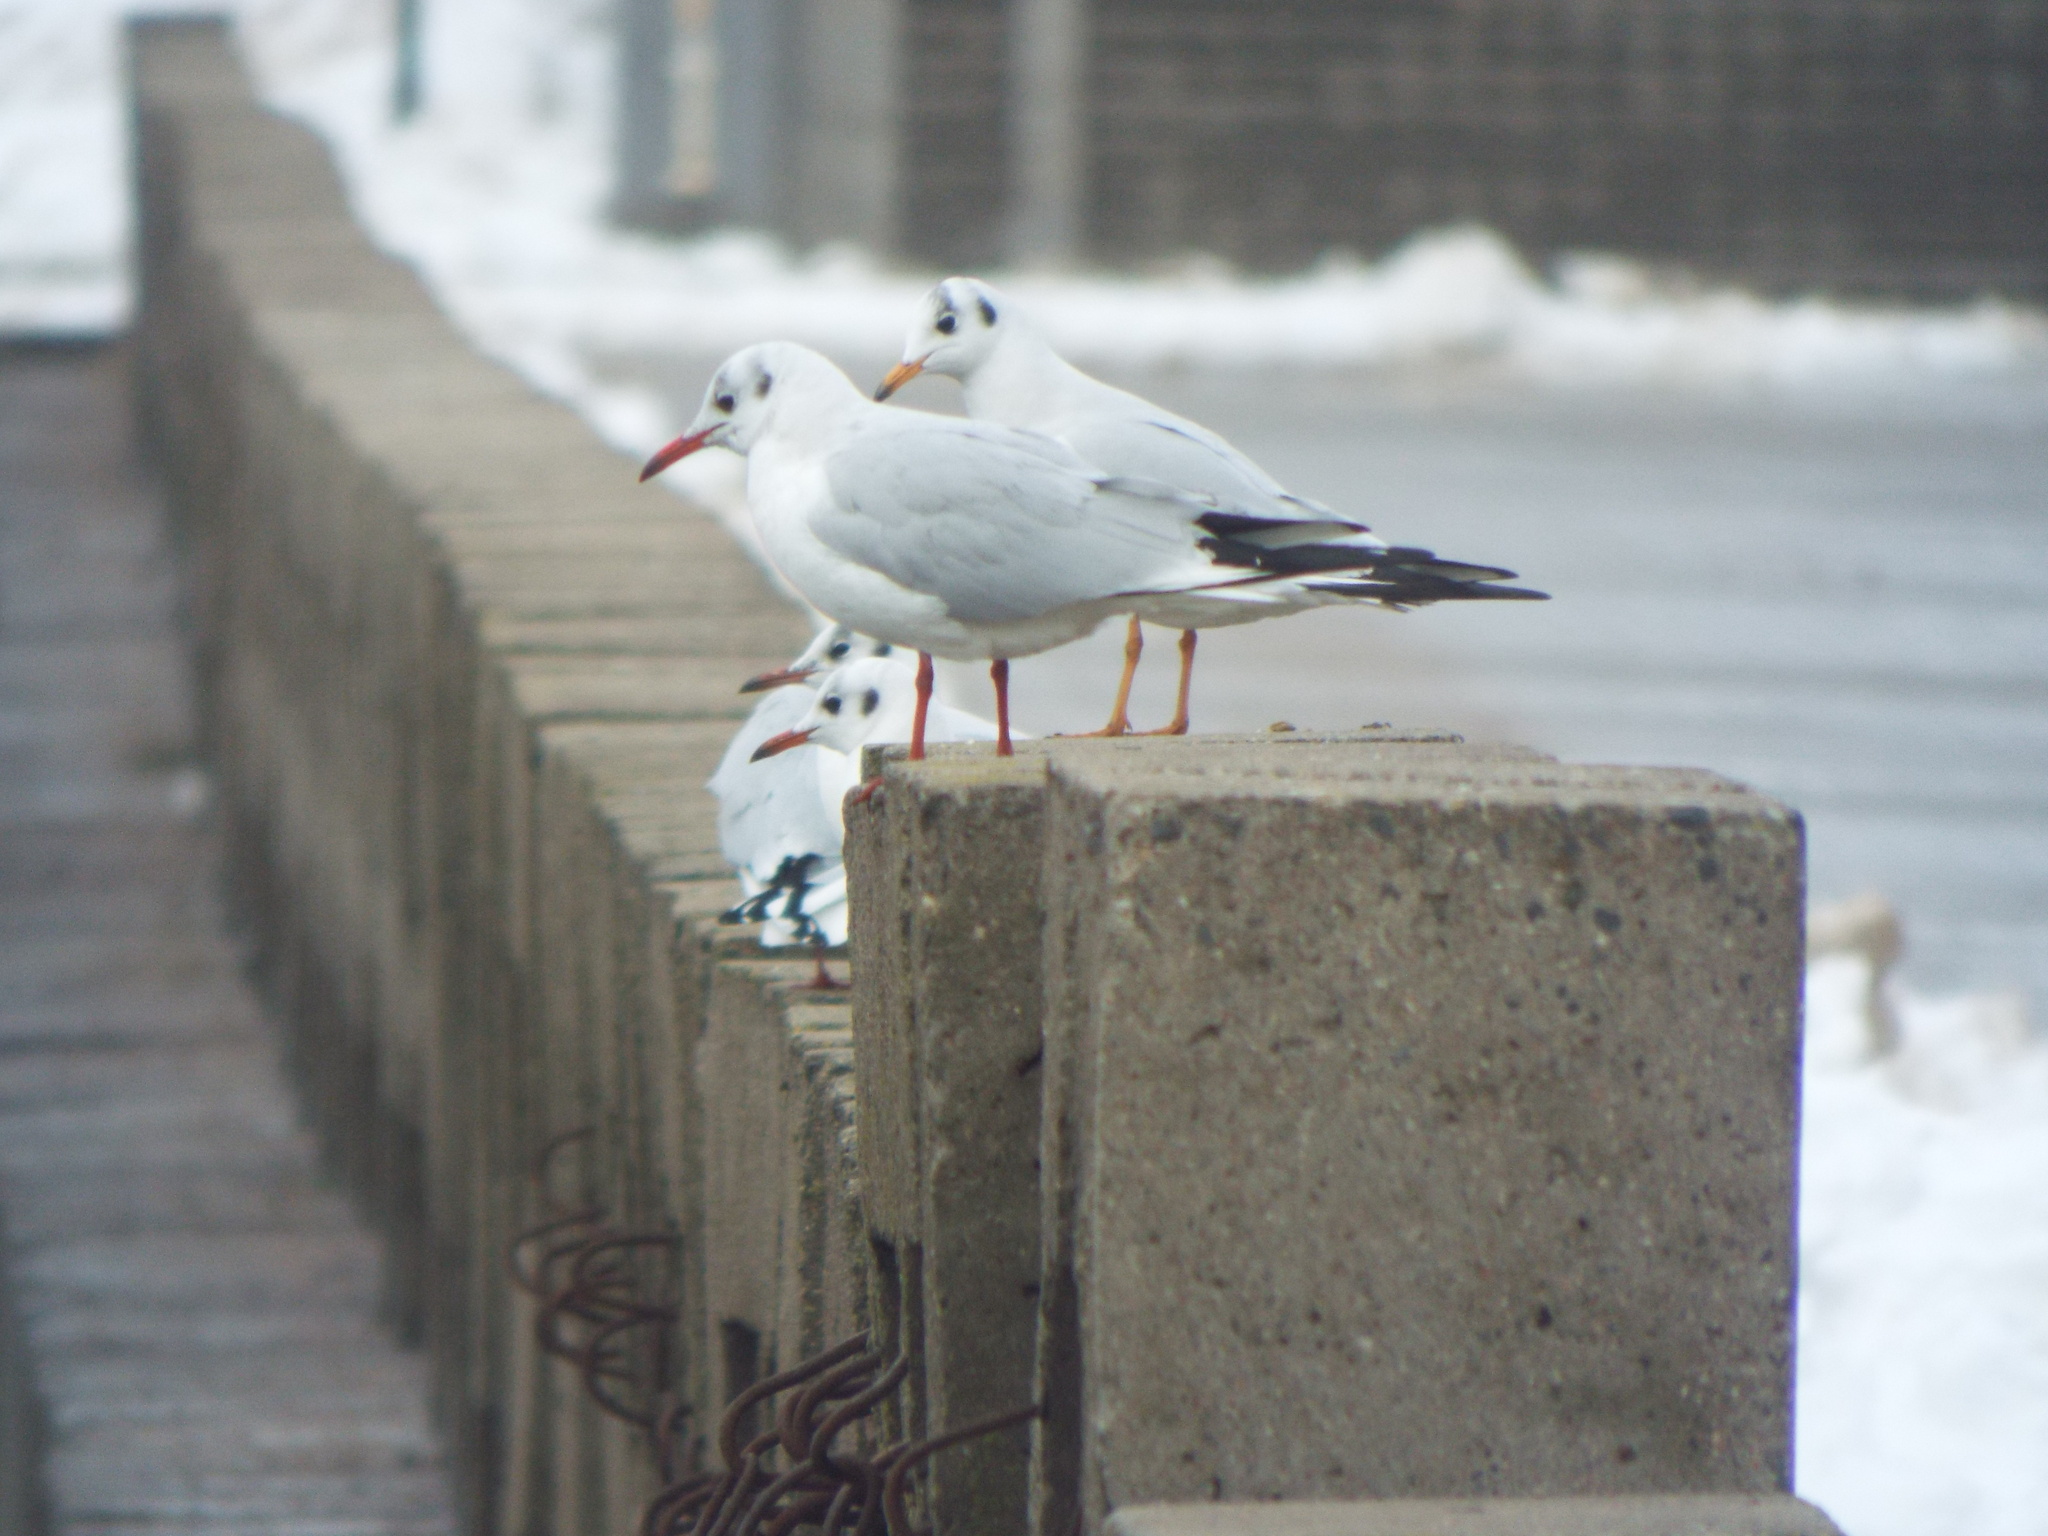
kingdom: Animalia
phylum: Chordata
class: Aves
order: Charadriiformes
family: Laridae
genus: Chroicocephalus
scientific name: Chroicocephalus ridibundus
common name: Black-headed gull
